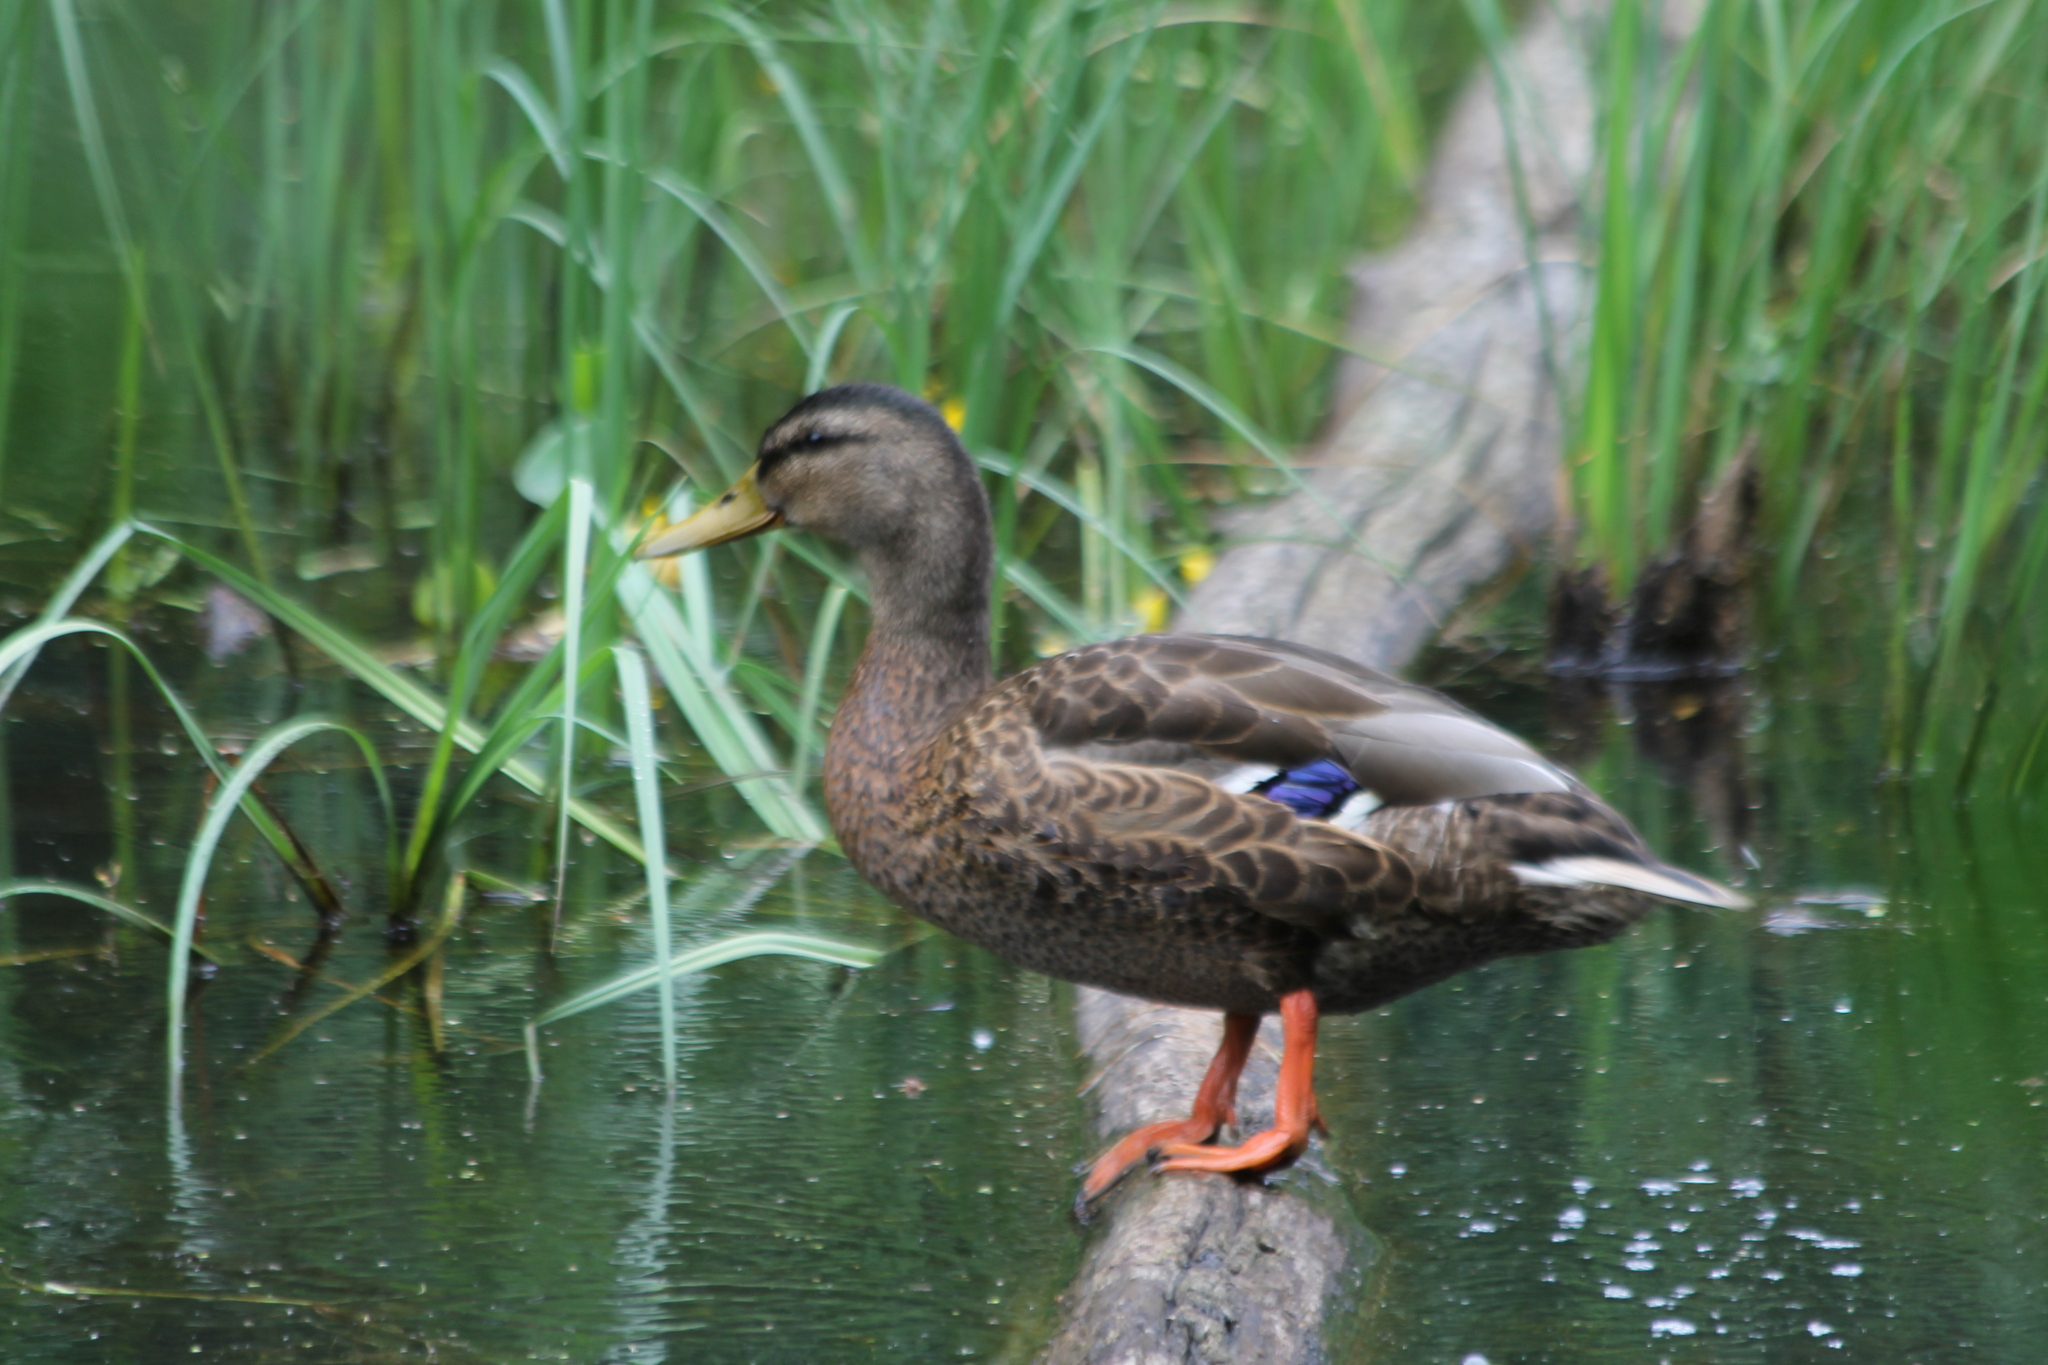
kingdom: Animalia
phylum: Chordata
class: Aves
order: Anseriformes
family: Anatidae
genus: Anas
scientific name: Anas platyrhynchos
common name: Mallard
